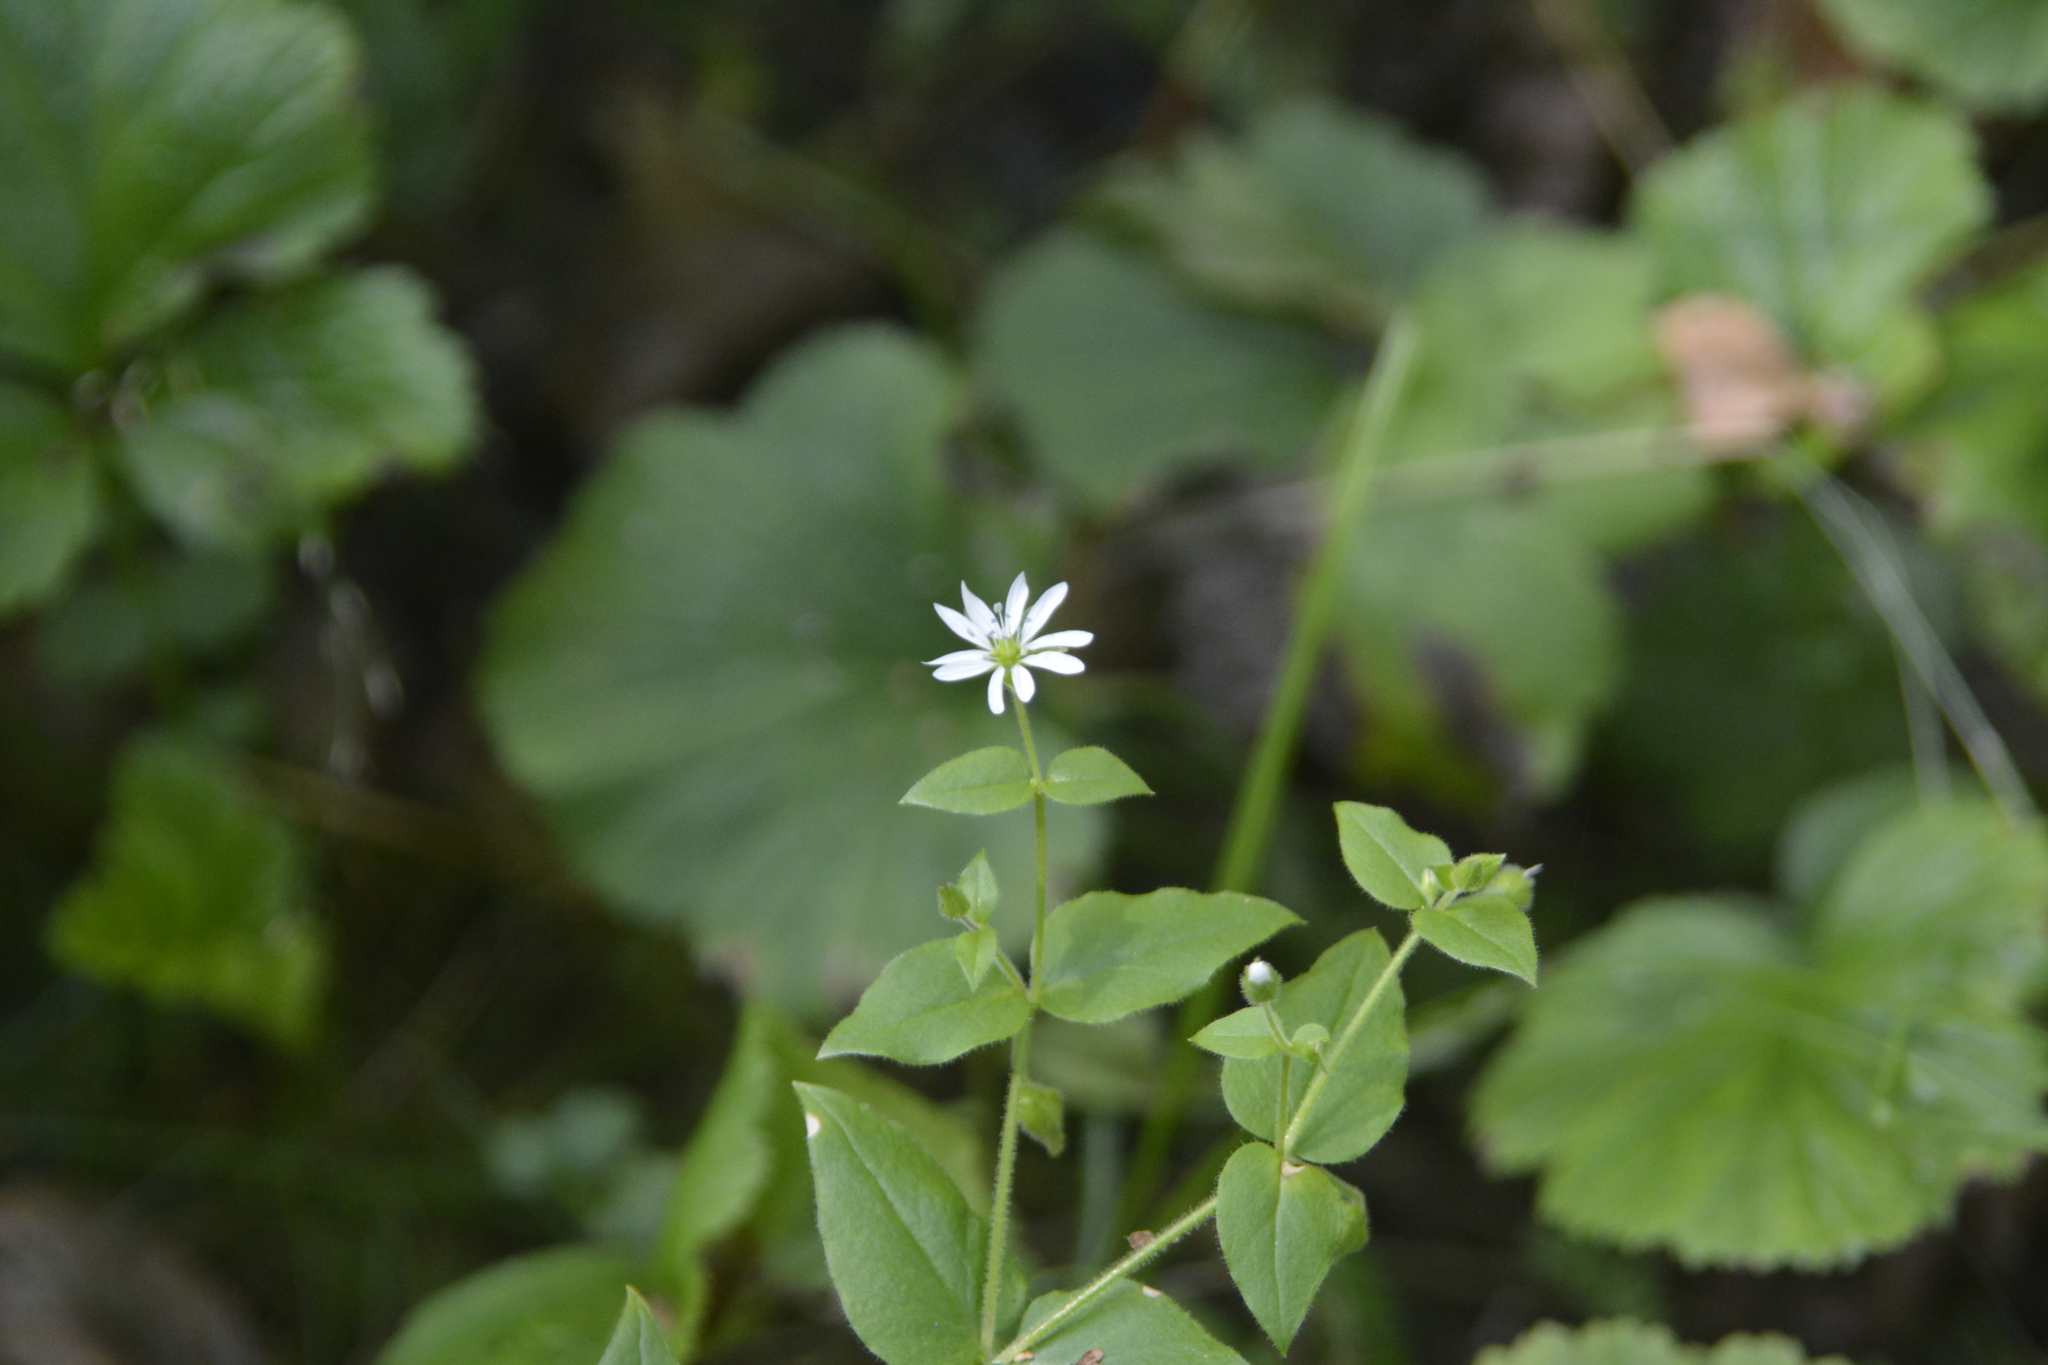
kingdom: Plantae
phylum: Tracheophyta
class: Magnoliopsida
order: Caryophyllales
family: Caryophyllaceae
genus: Stellaria
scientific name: Stellaria aquatica
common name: Water chickweed
